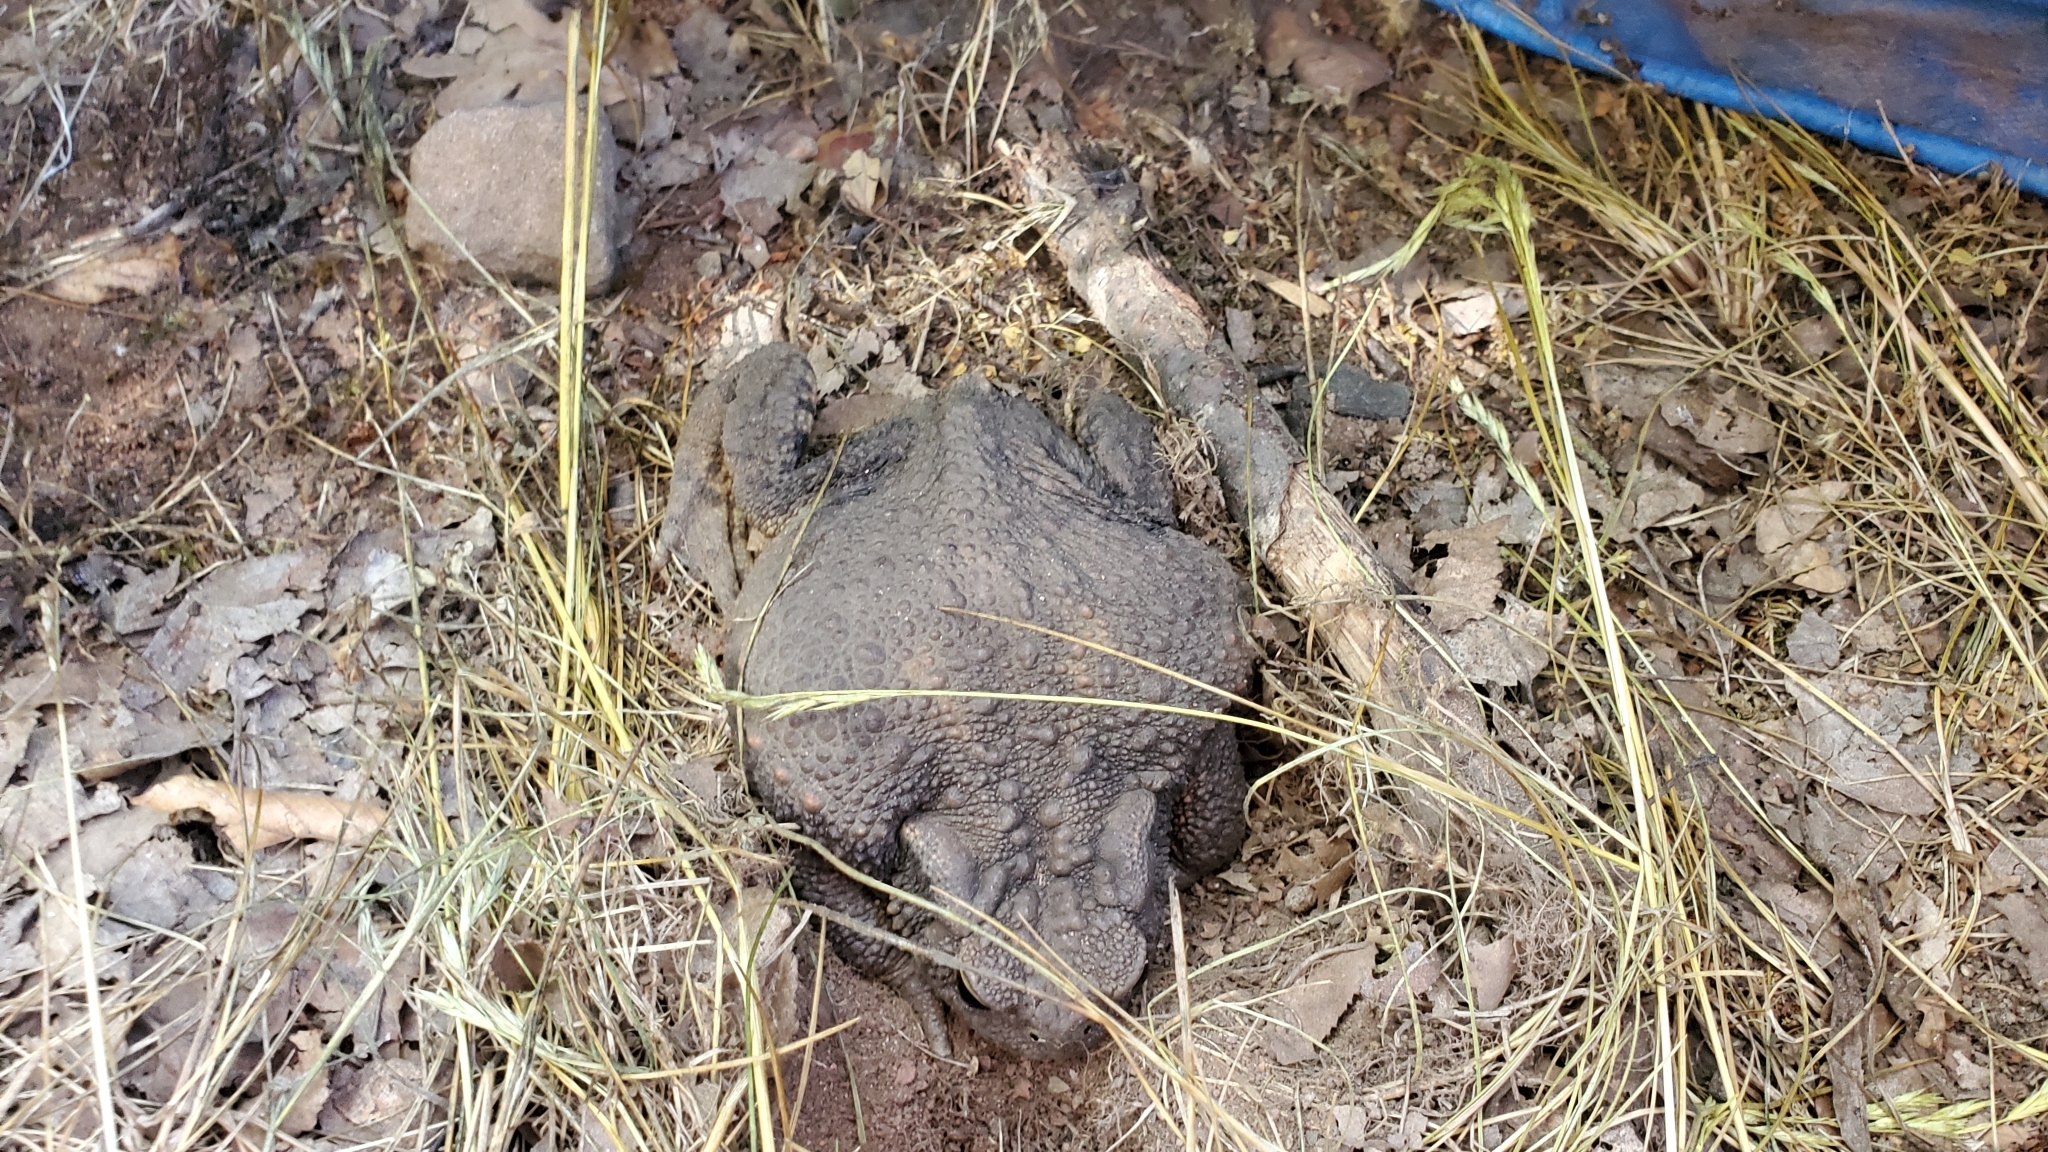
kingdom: Animalia
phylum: Chordata
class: Amphibia
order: Anura
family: Bufonidae
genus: Bufo
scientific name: Bufo bufo
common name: Common toad
